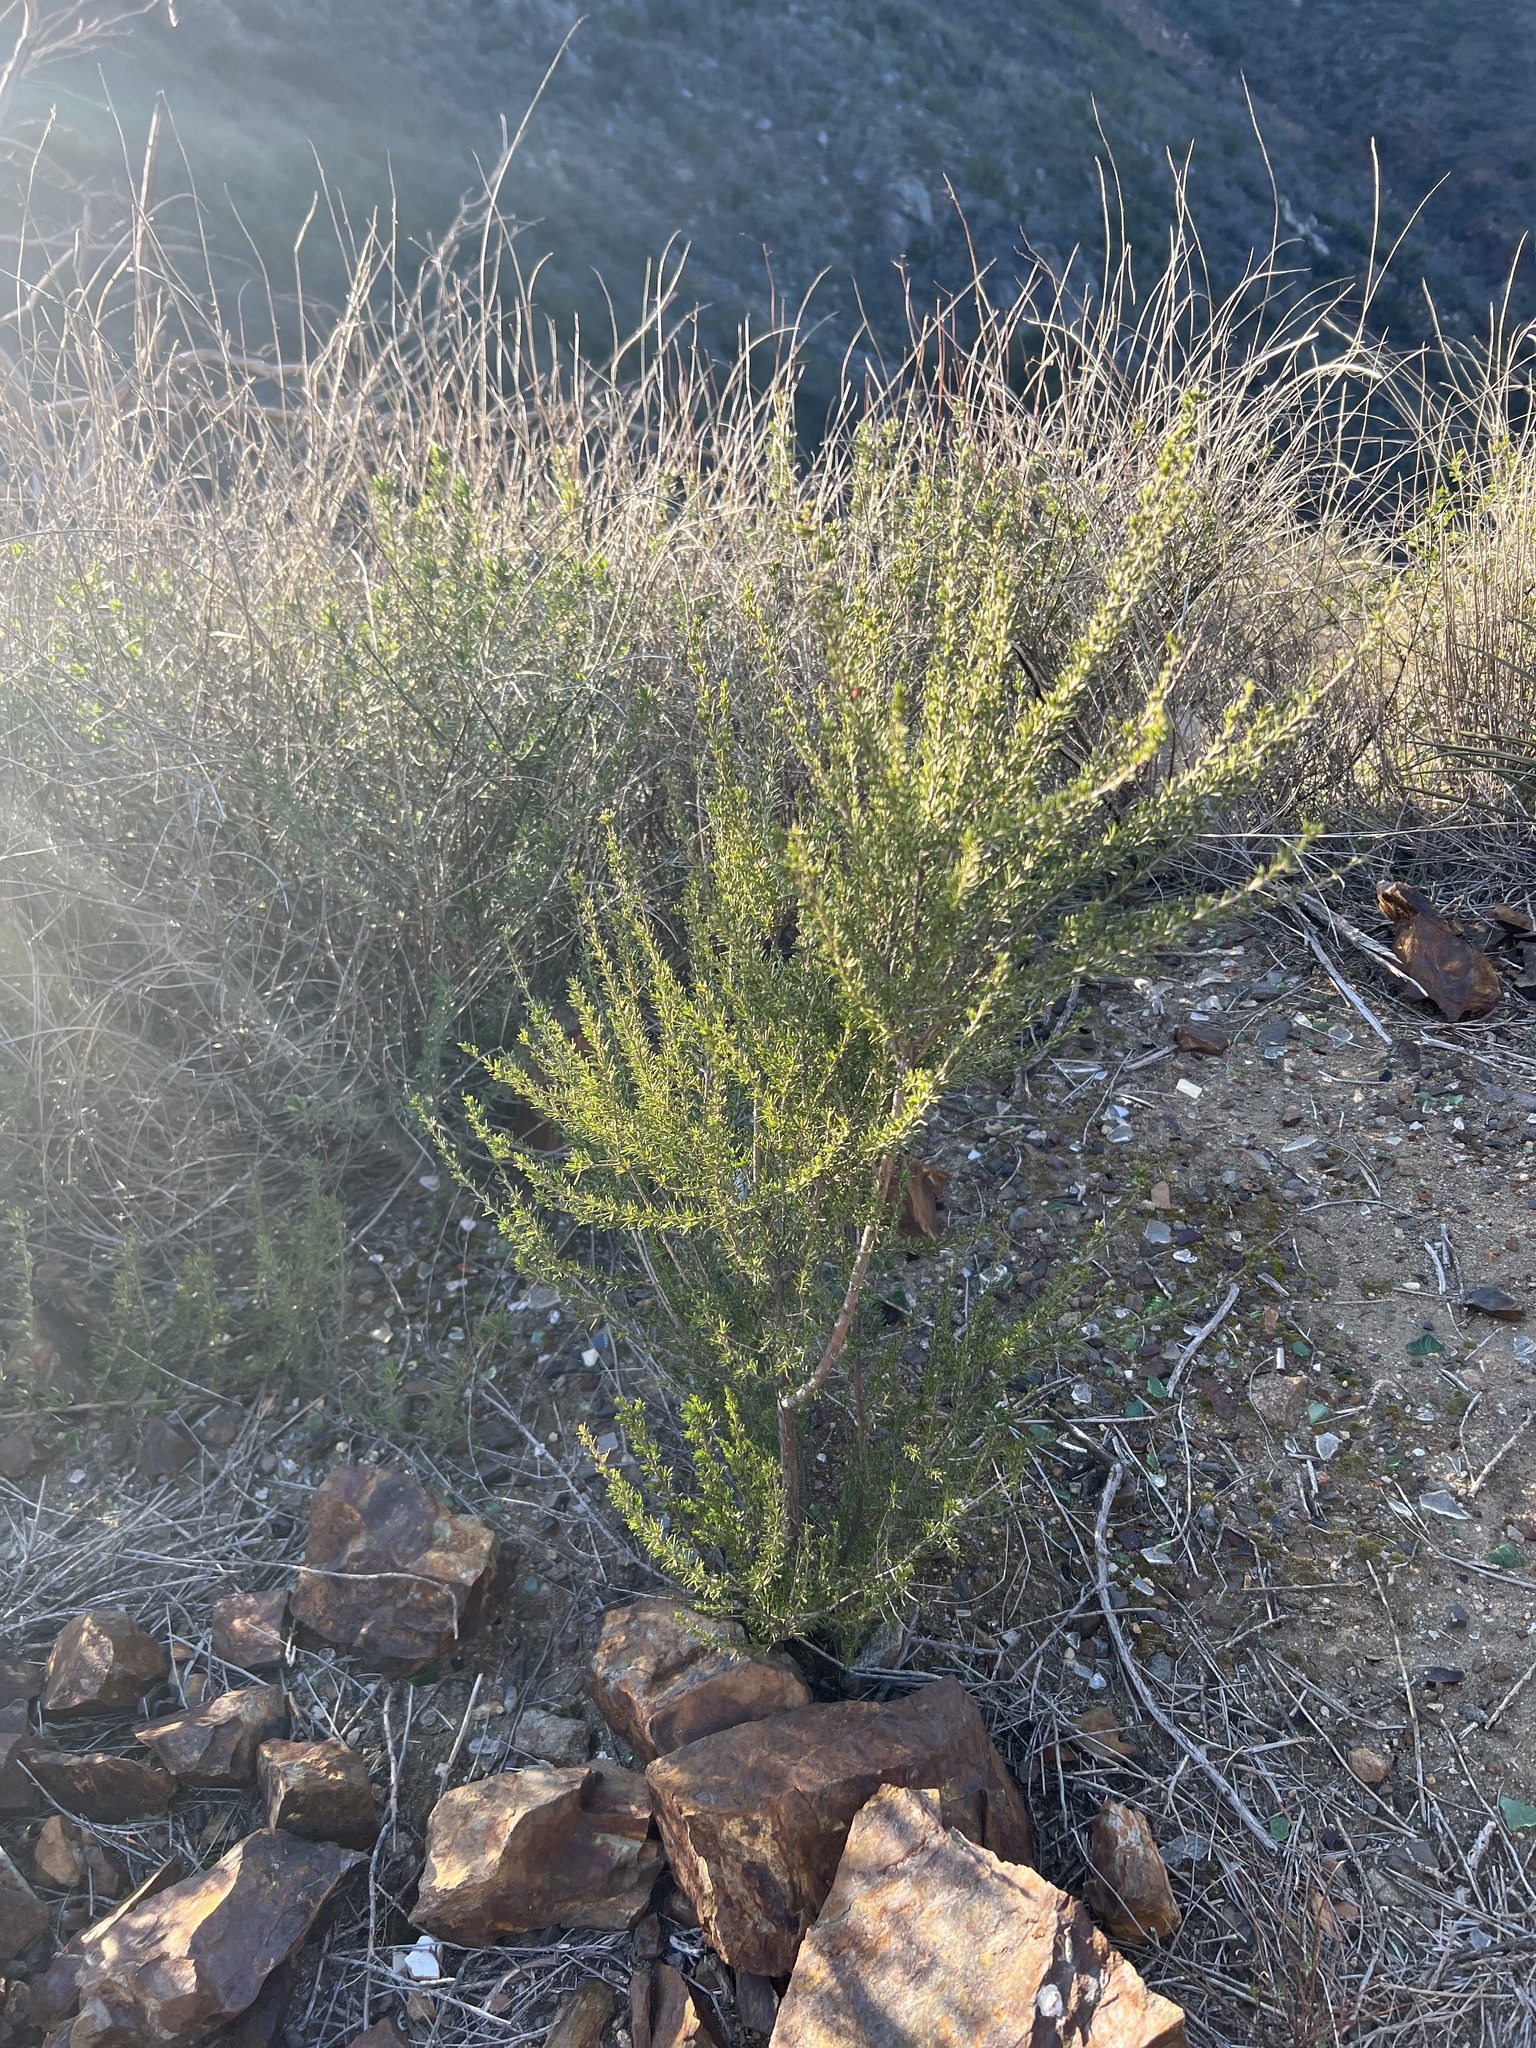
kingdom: Plantae
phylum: Tracheophyta
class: Magnoliopsida
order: Rosales
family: Rosaceae
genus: Adenostoma
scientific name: Adenostoma fasciculatum
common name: Chamise
